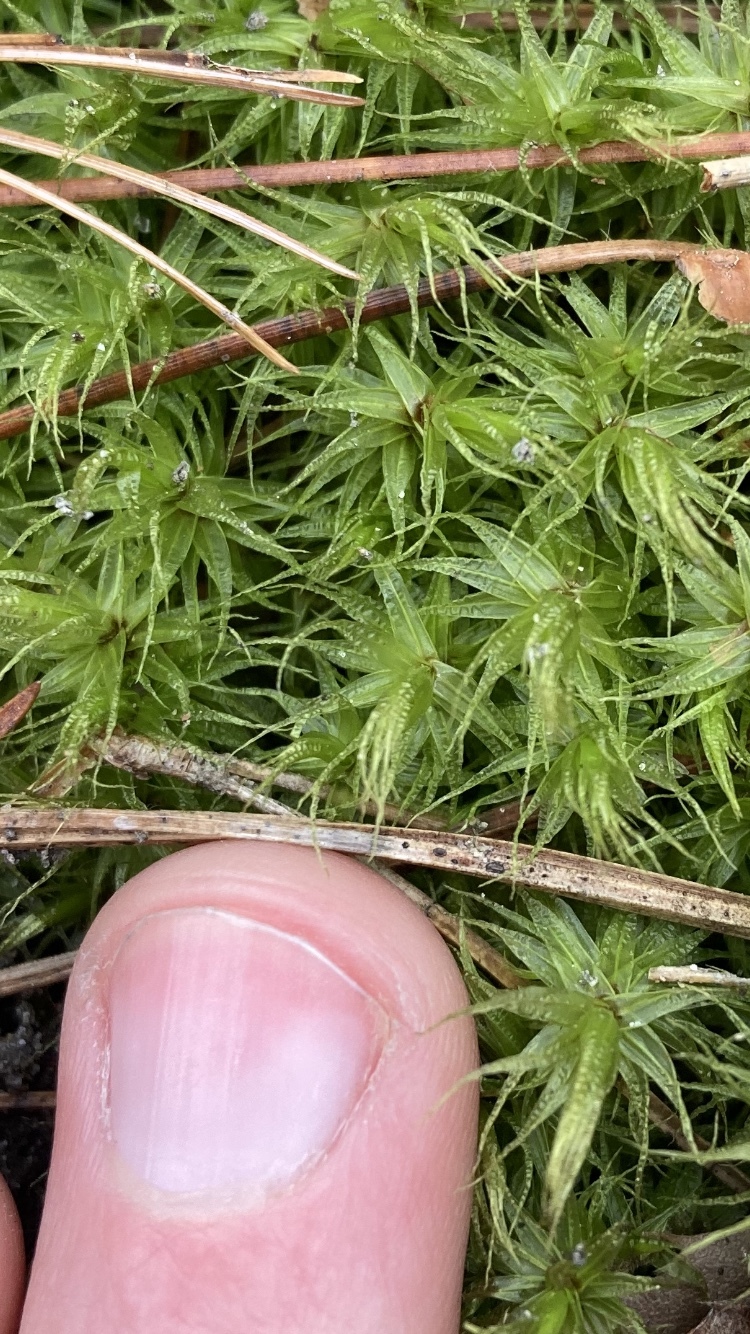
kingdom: Plantae
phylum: Bryophyta
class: Bryopsida
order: Dicranales
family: Dicranaceae
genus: Dicranum
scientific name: Dicranum polysetum
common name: Rugose fork-moss
